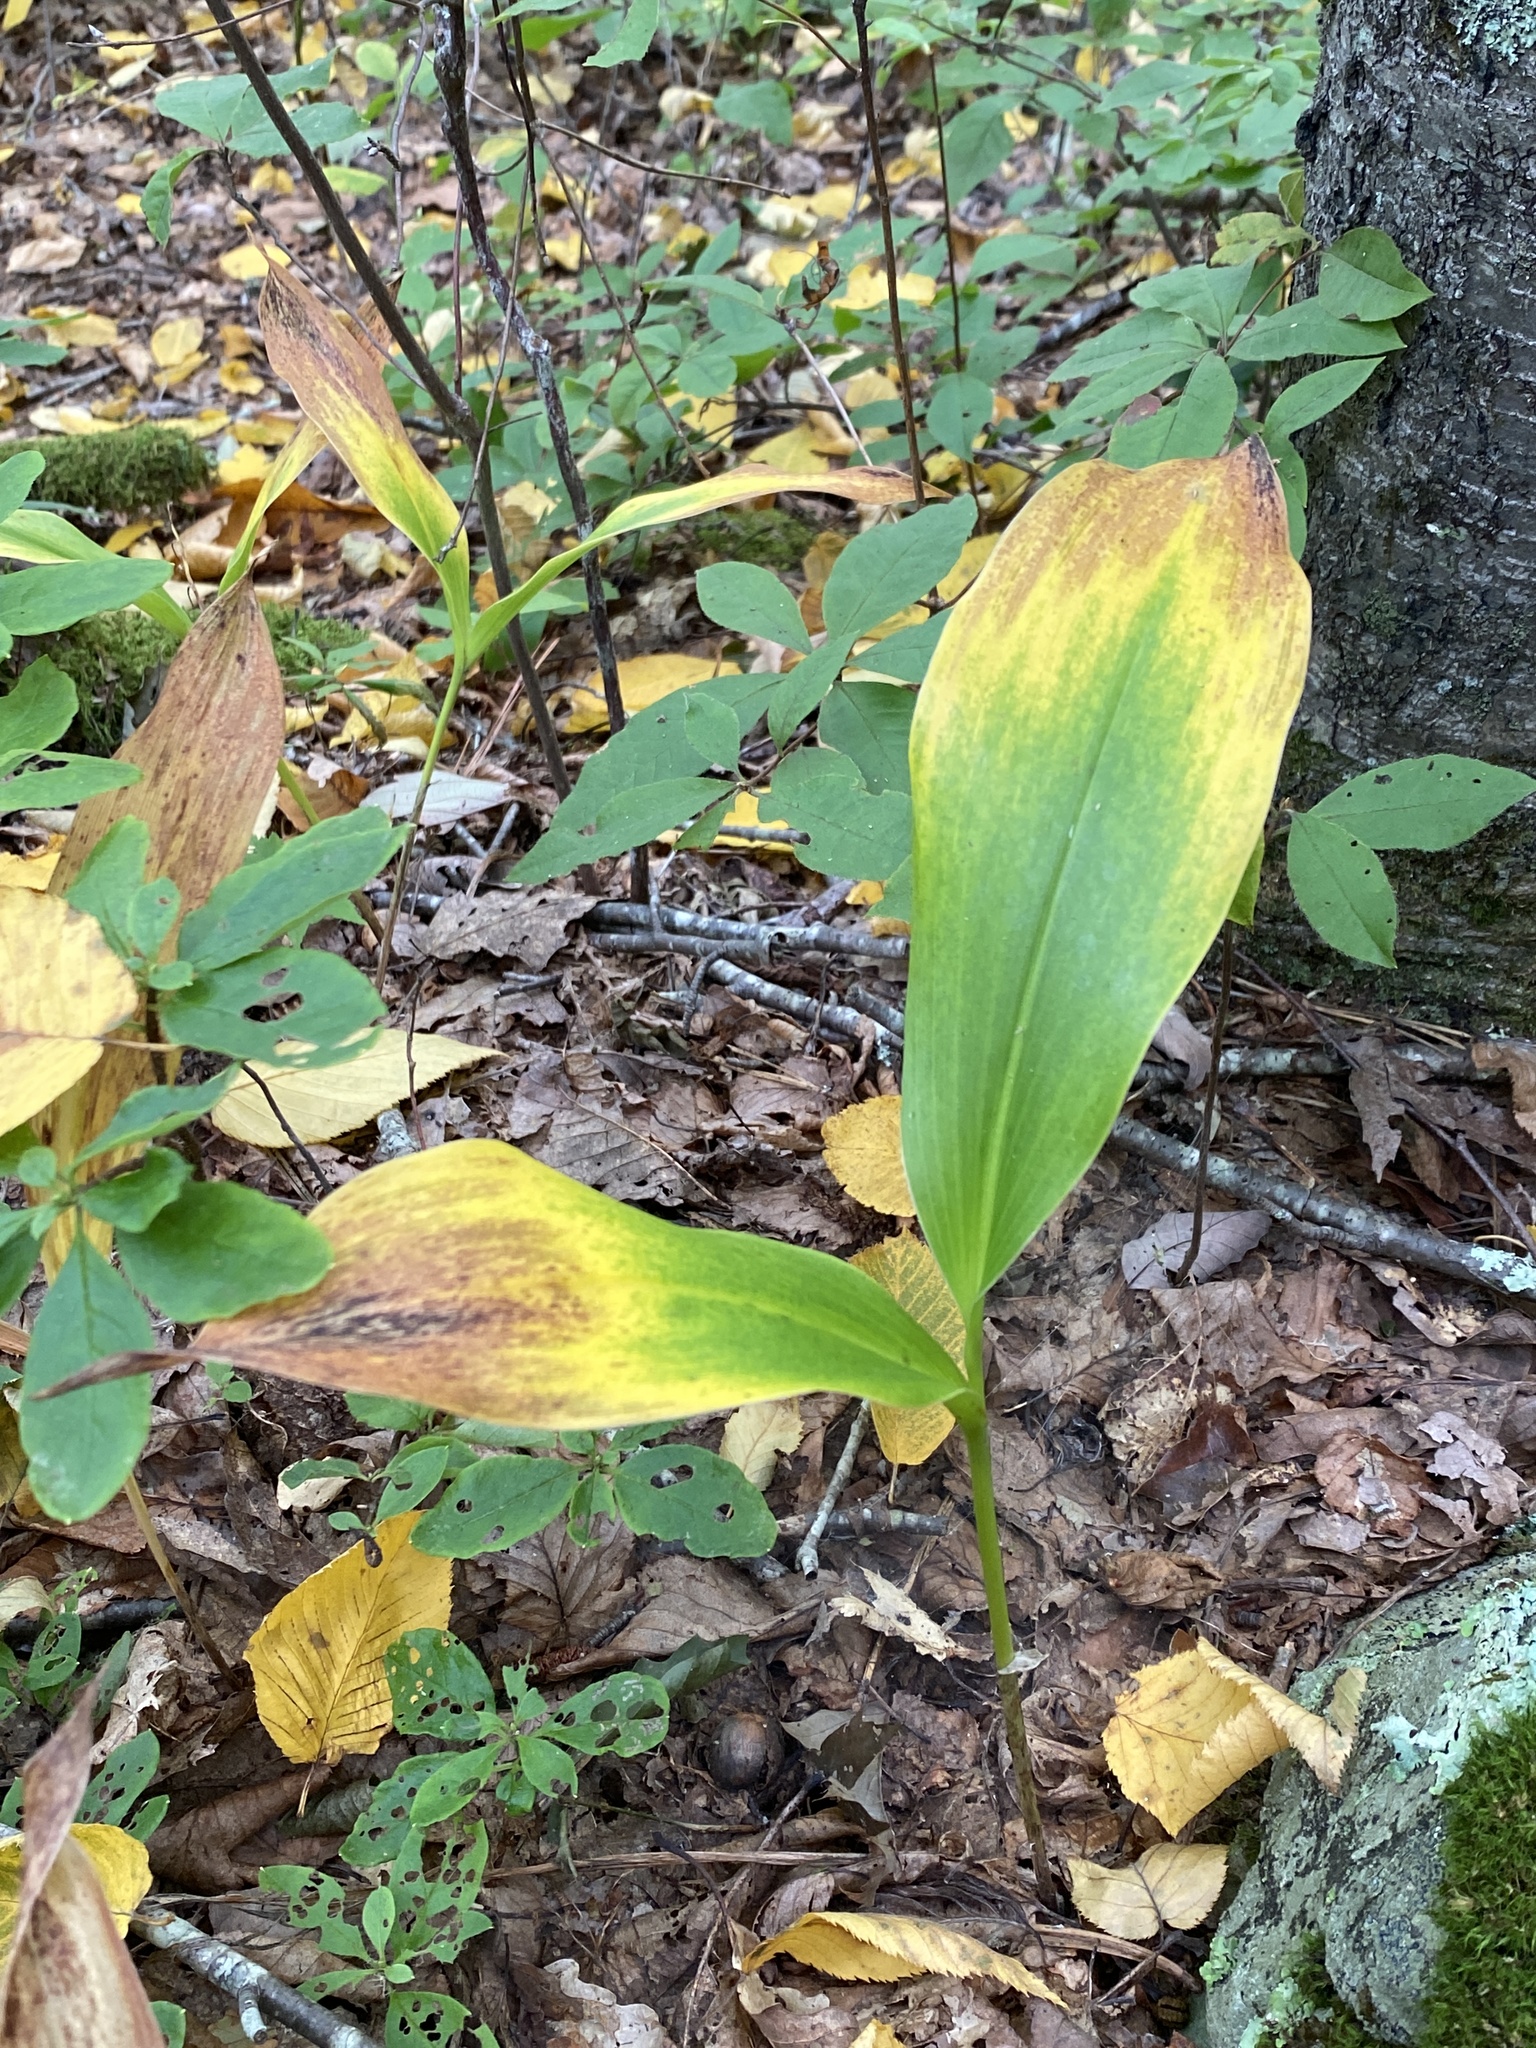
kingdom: Plantae
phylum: Tracheophyta
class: Liliopsida
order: Asparagales
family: Asparagaceae
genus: Convallaria
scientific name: Convallaria pseudomajalis
